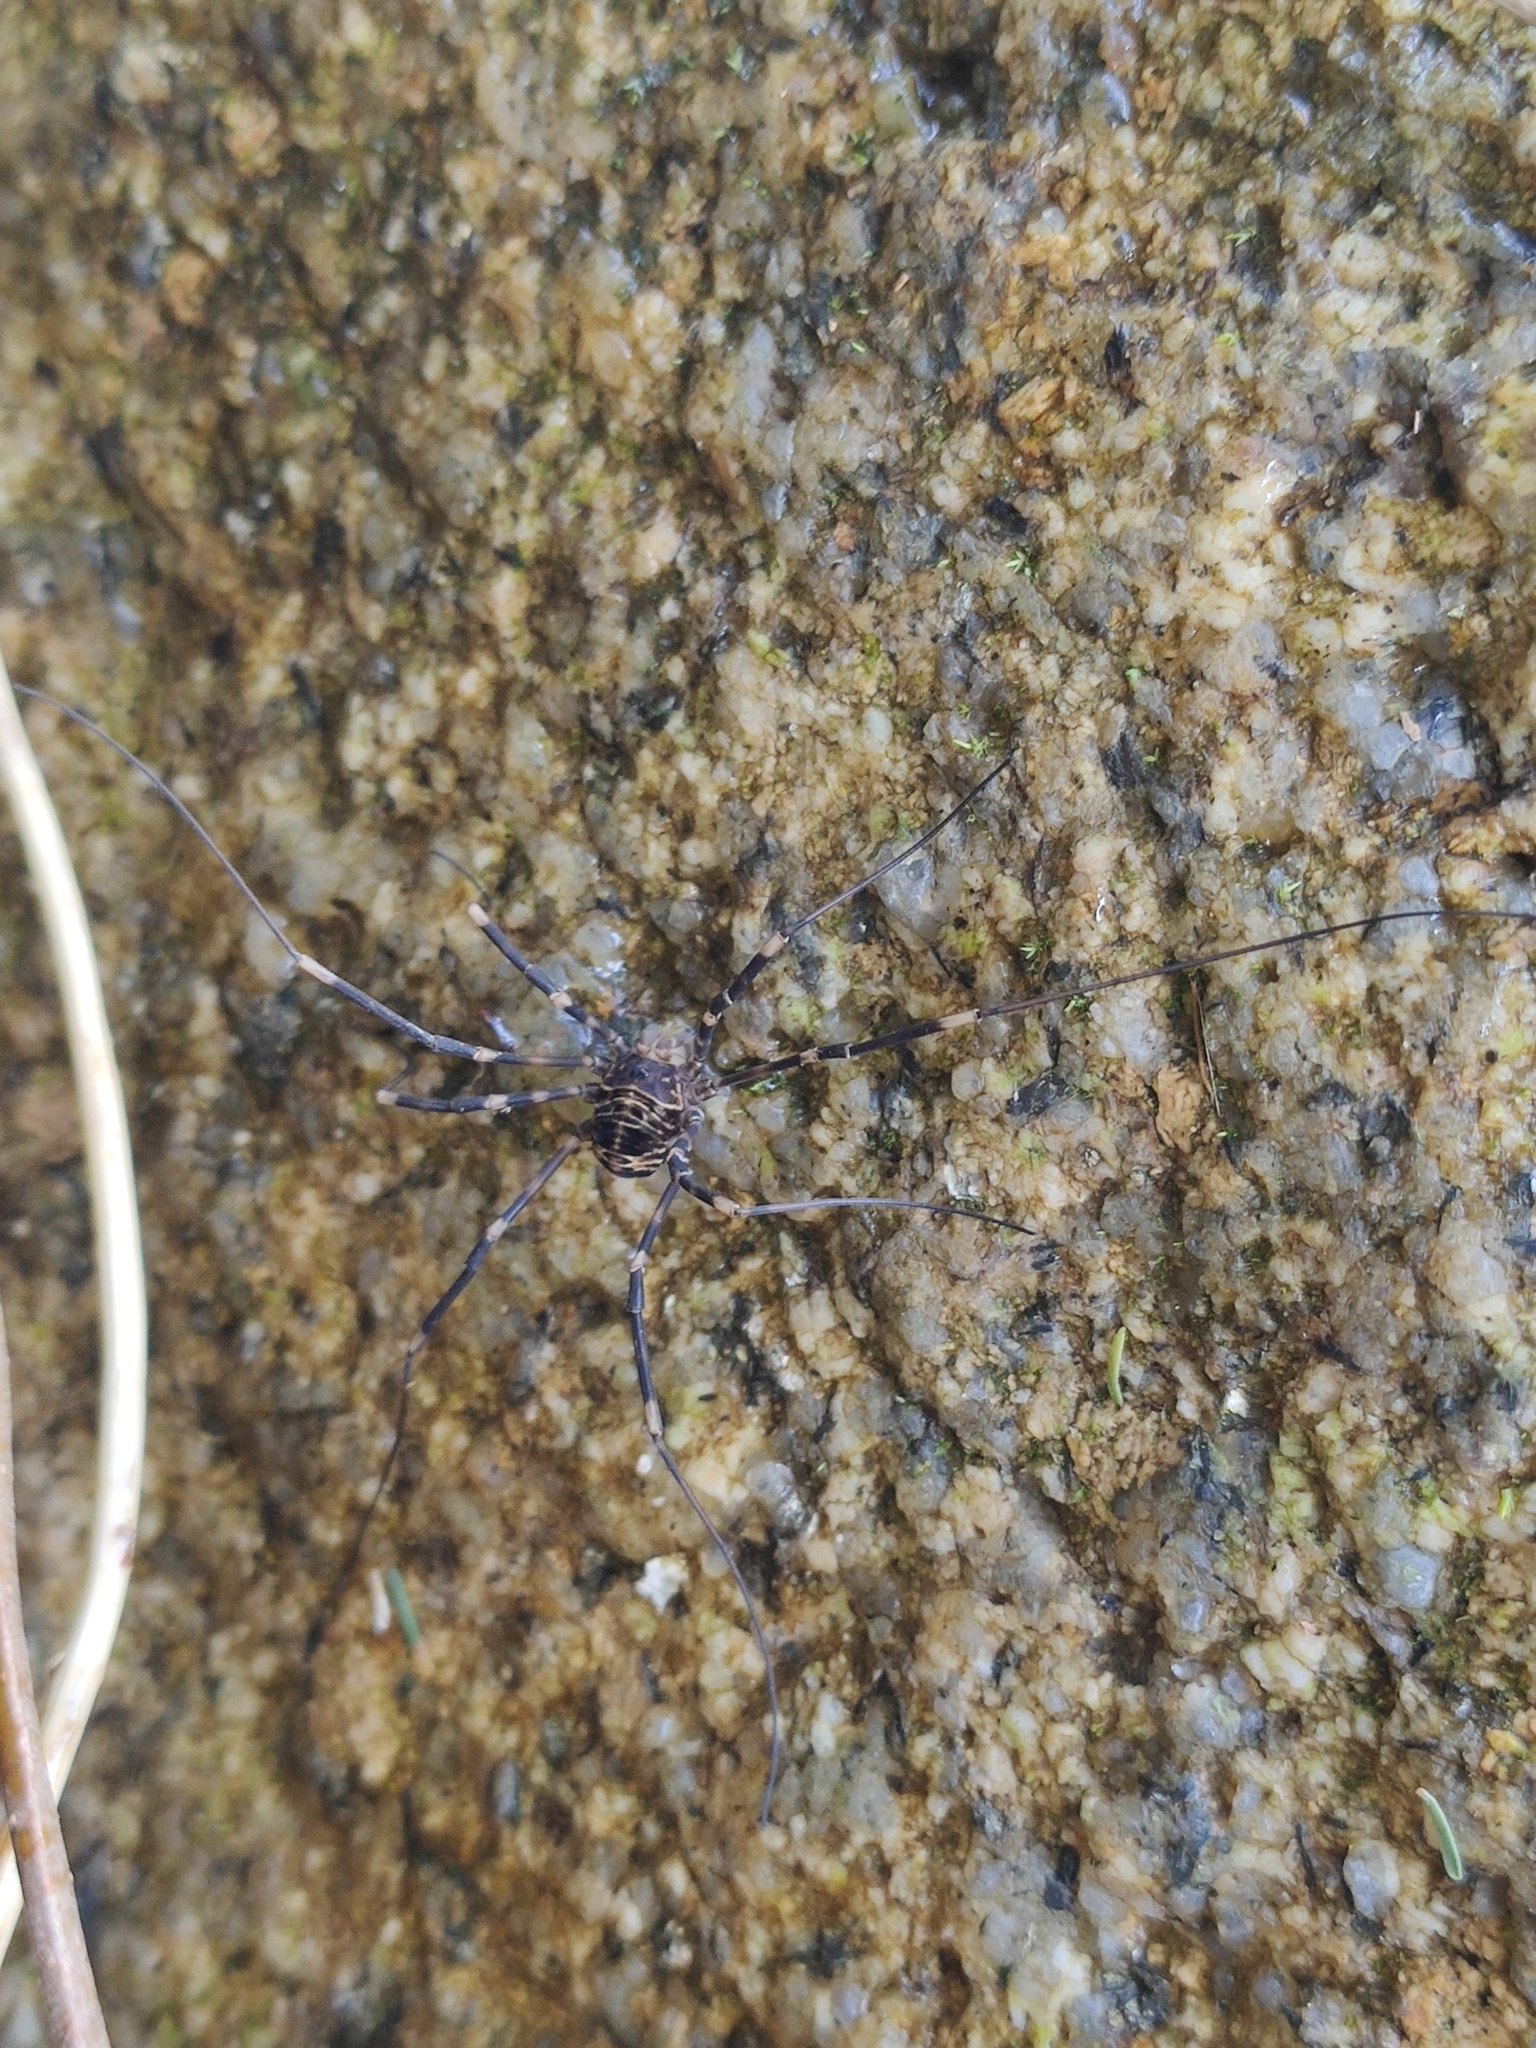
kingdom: Animalia
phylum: Arthropoda
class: Arachnida
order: Opiliones
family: Sclerosomatidae
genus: Gyas
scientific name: Gyas titanus
